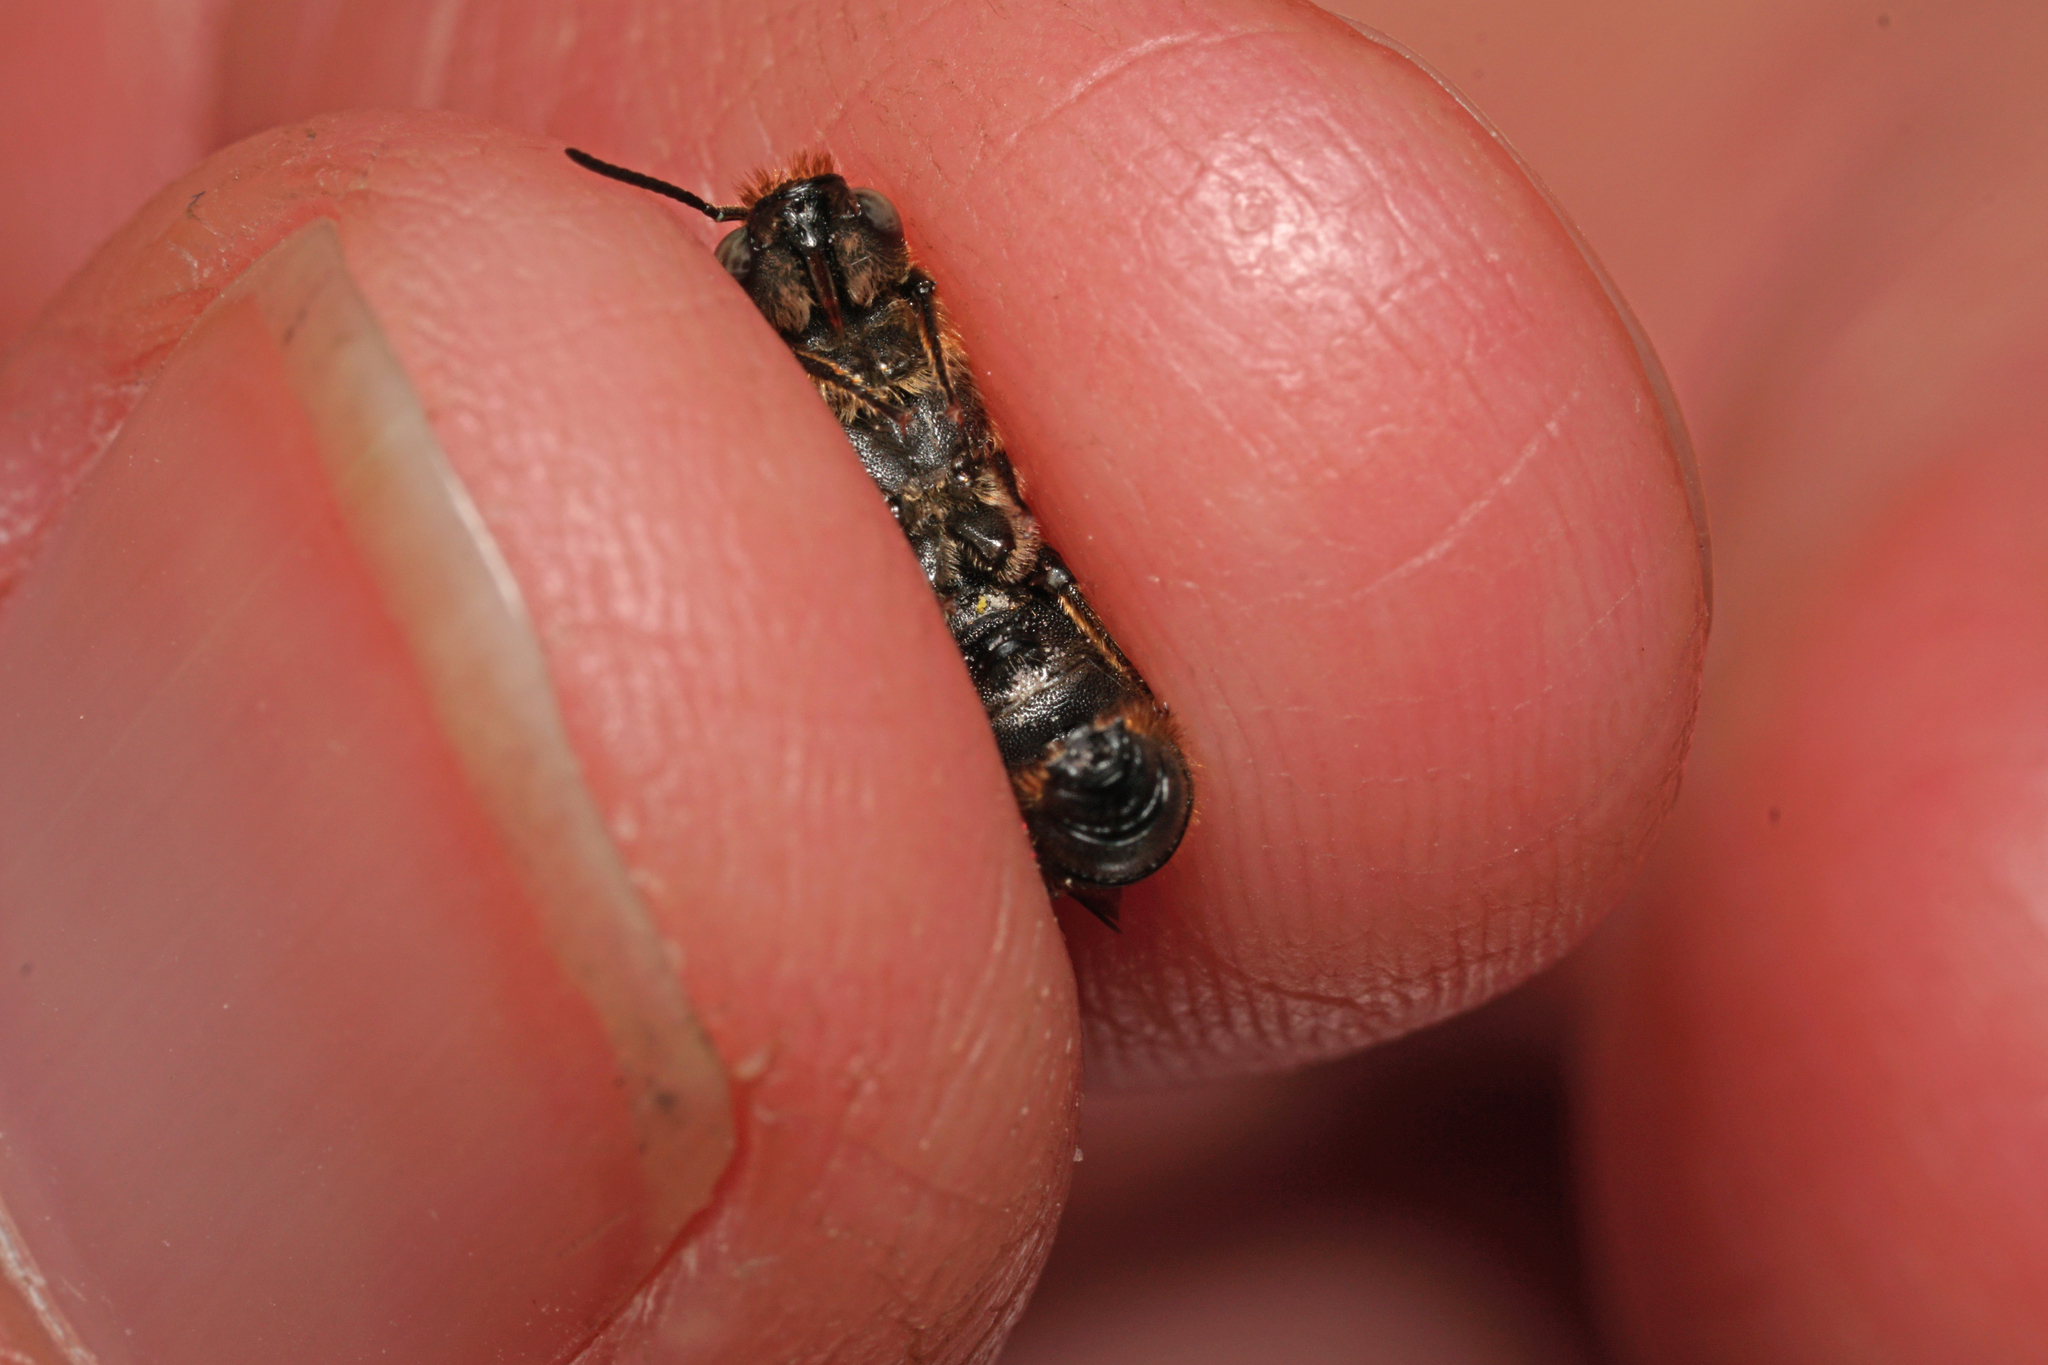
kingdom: Animalia
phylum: Arthropoda
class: Insecta
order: Hymenoptera
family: Megachilidae
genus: Chelostoma
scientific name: Chelostoma rapunculi
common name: Rampion scissor bee
